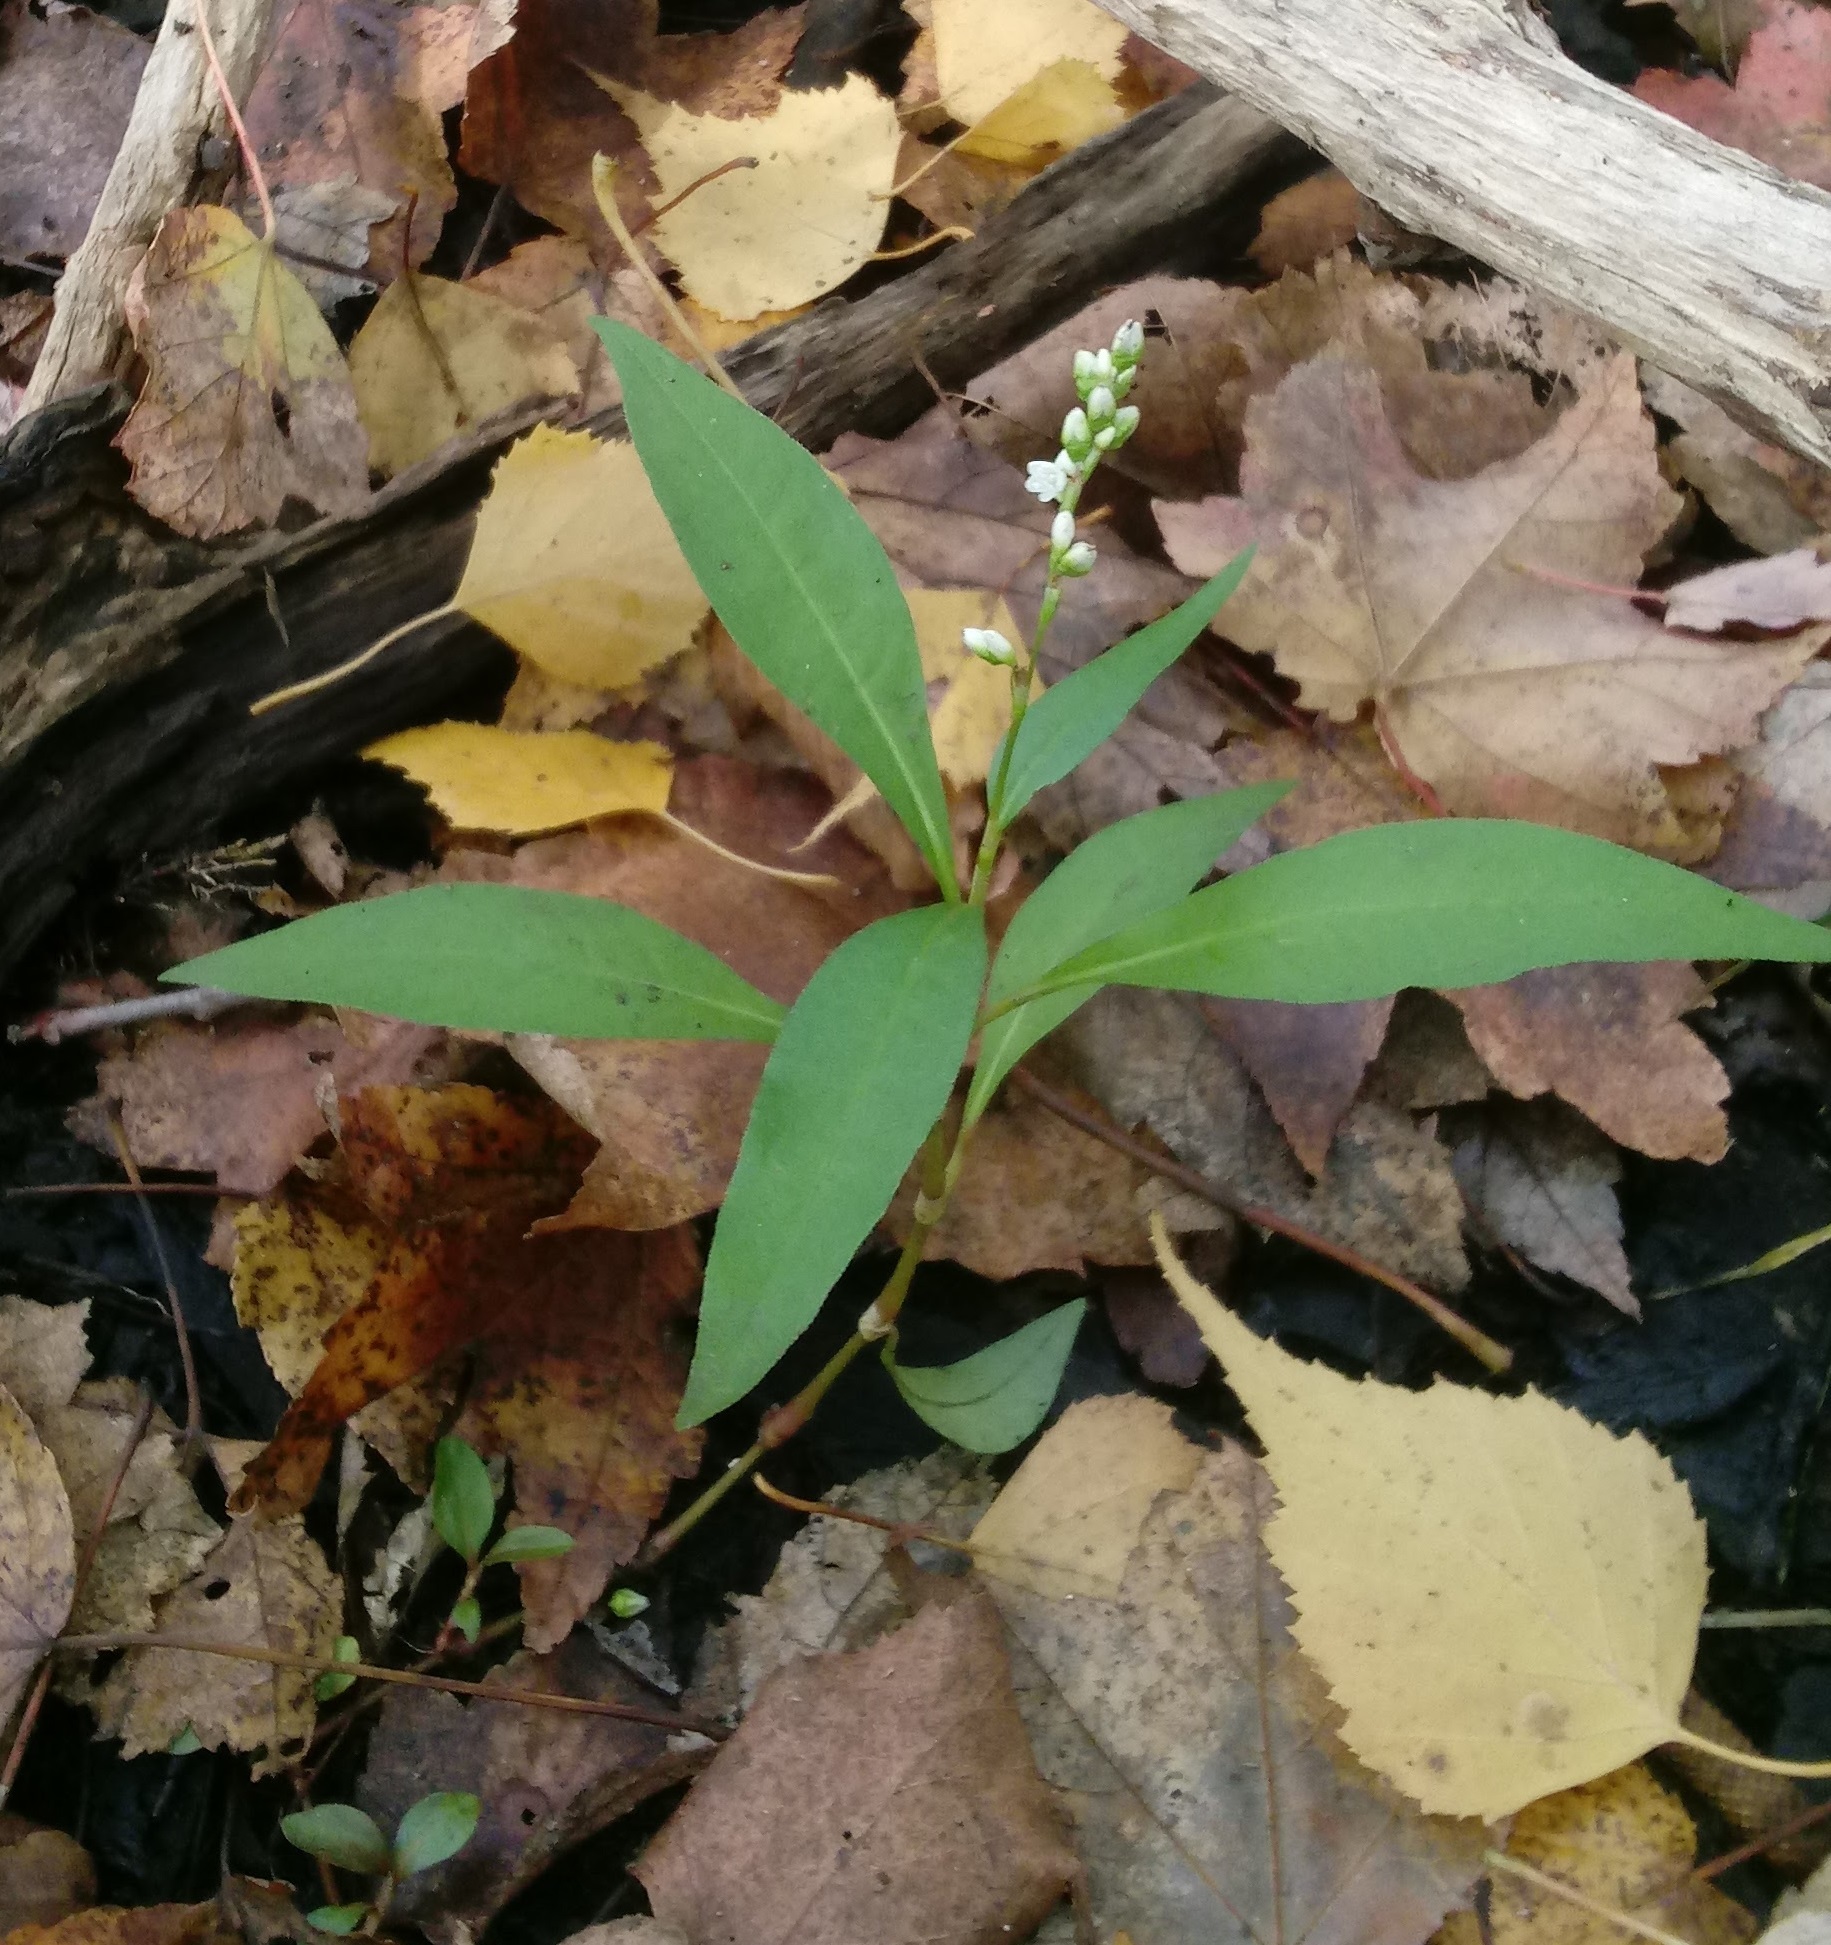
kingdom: Plantae
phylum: Tracheophyta
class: Magnoliopsida
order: Caryophyllales
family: Polygonaceae
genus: Persicaria
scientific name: Persicaria punctata
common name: Dotted smartweed
